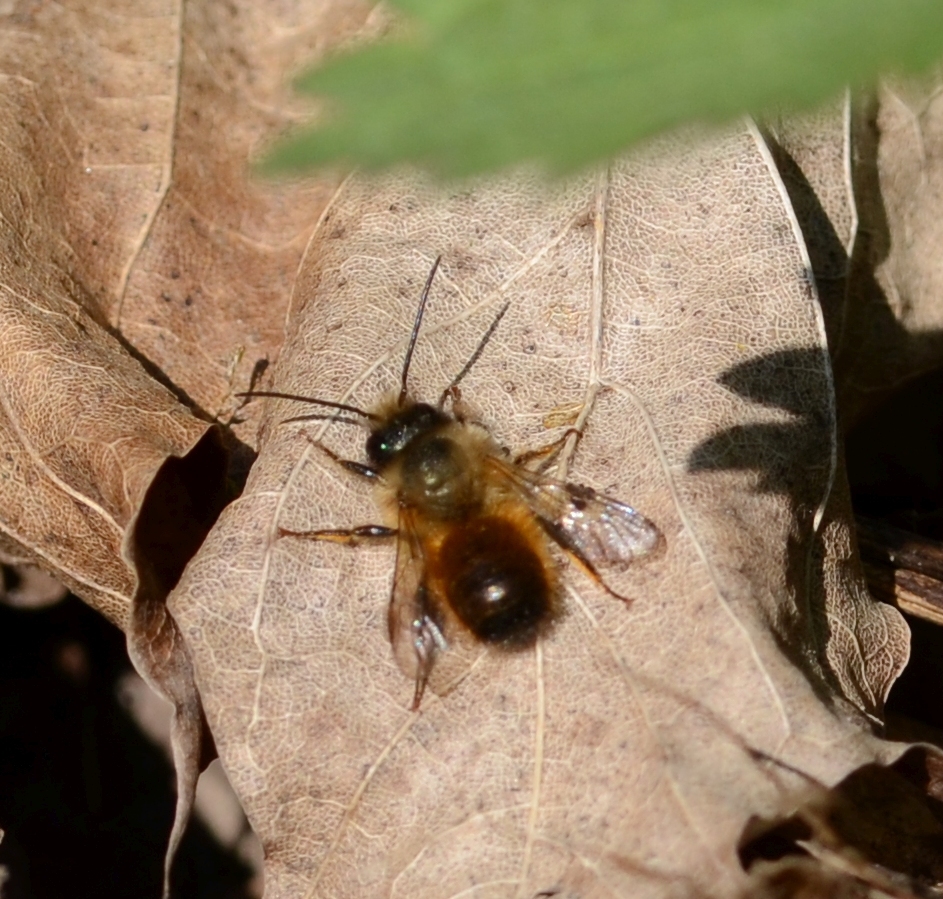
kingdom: Animalia
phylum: Arthropoda
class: Insecta
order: Hymenoptera
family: Megachilidae
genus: Osmia
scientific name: Osmia bicornis
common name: Red mason bee
